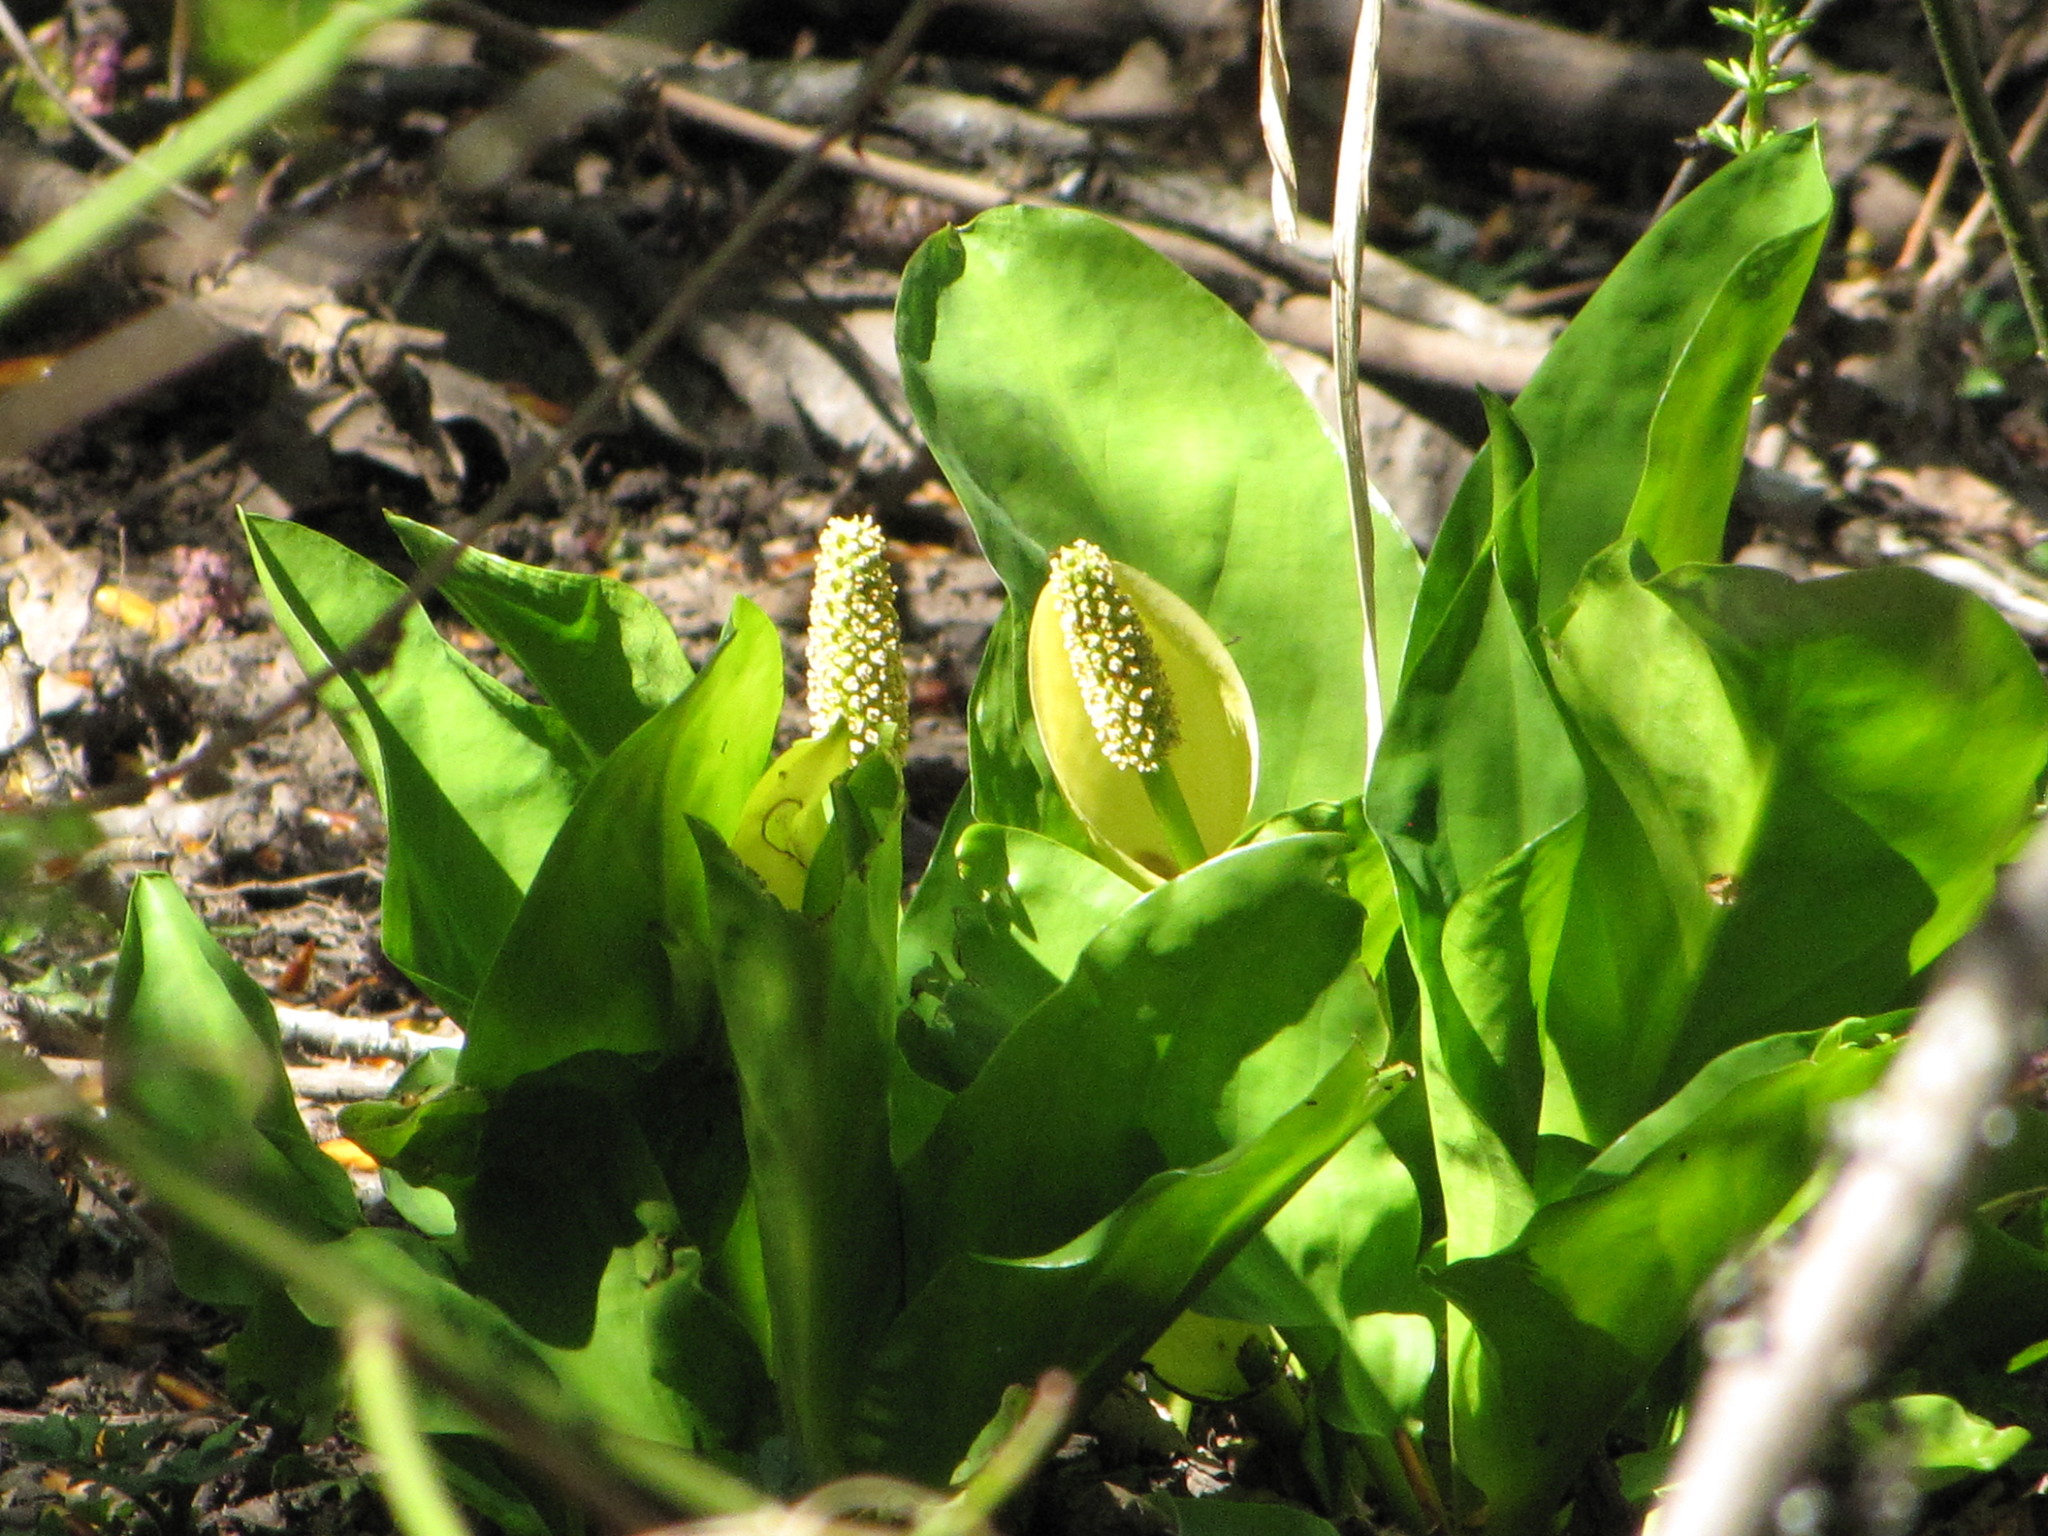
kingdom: Plantae
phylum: Tracheophyta
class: Liliopsida
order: Alismatales
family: Araceae
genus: Lysichiton
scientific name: Lysichiton americanus
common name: American skunk cabbage
